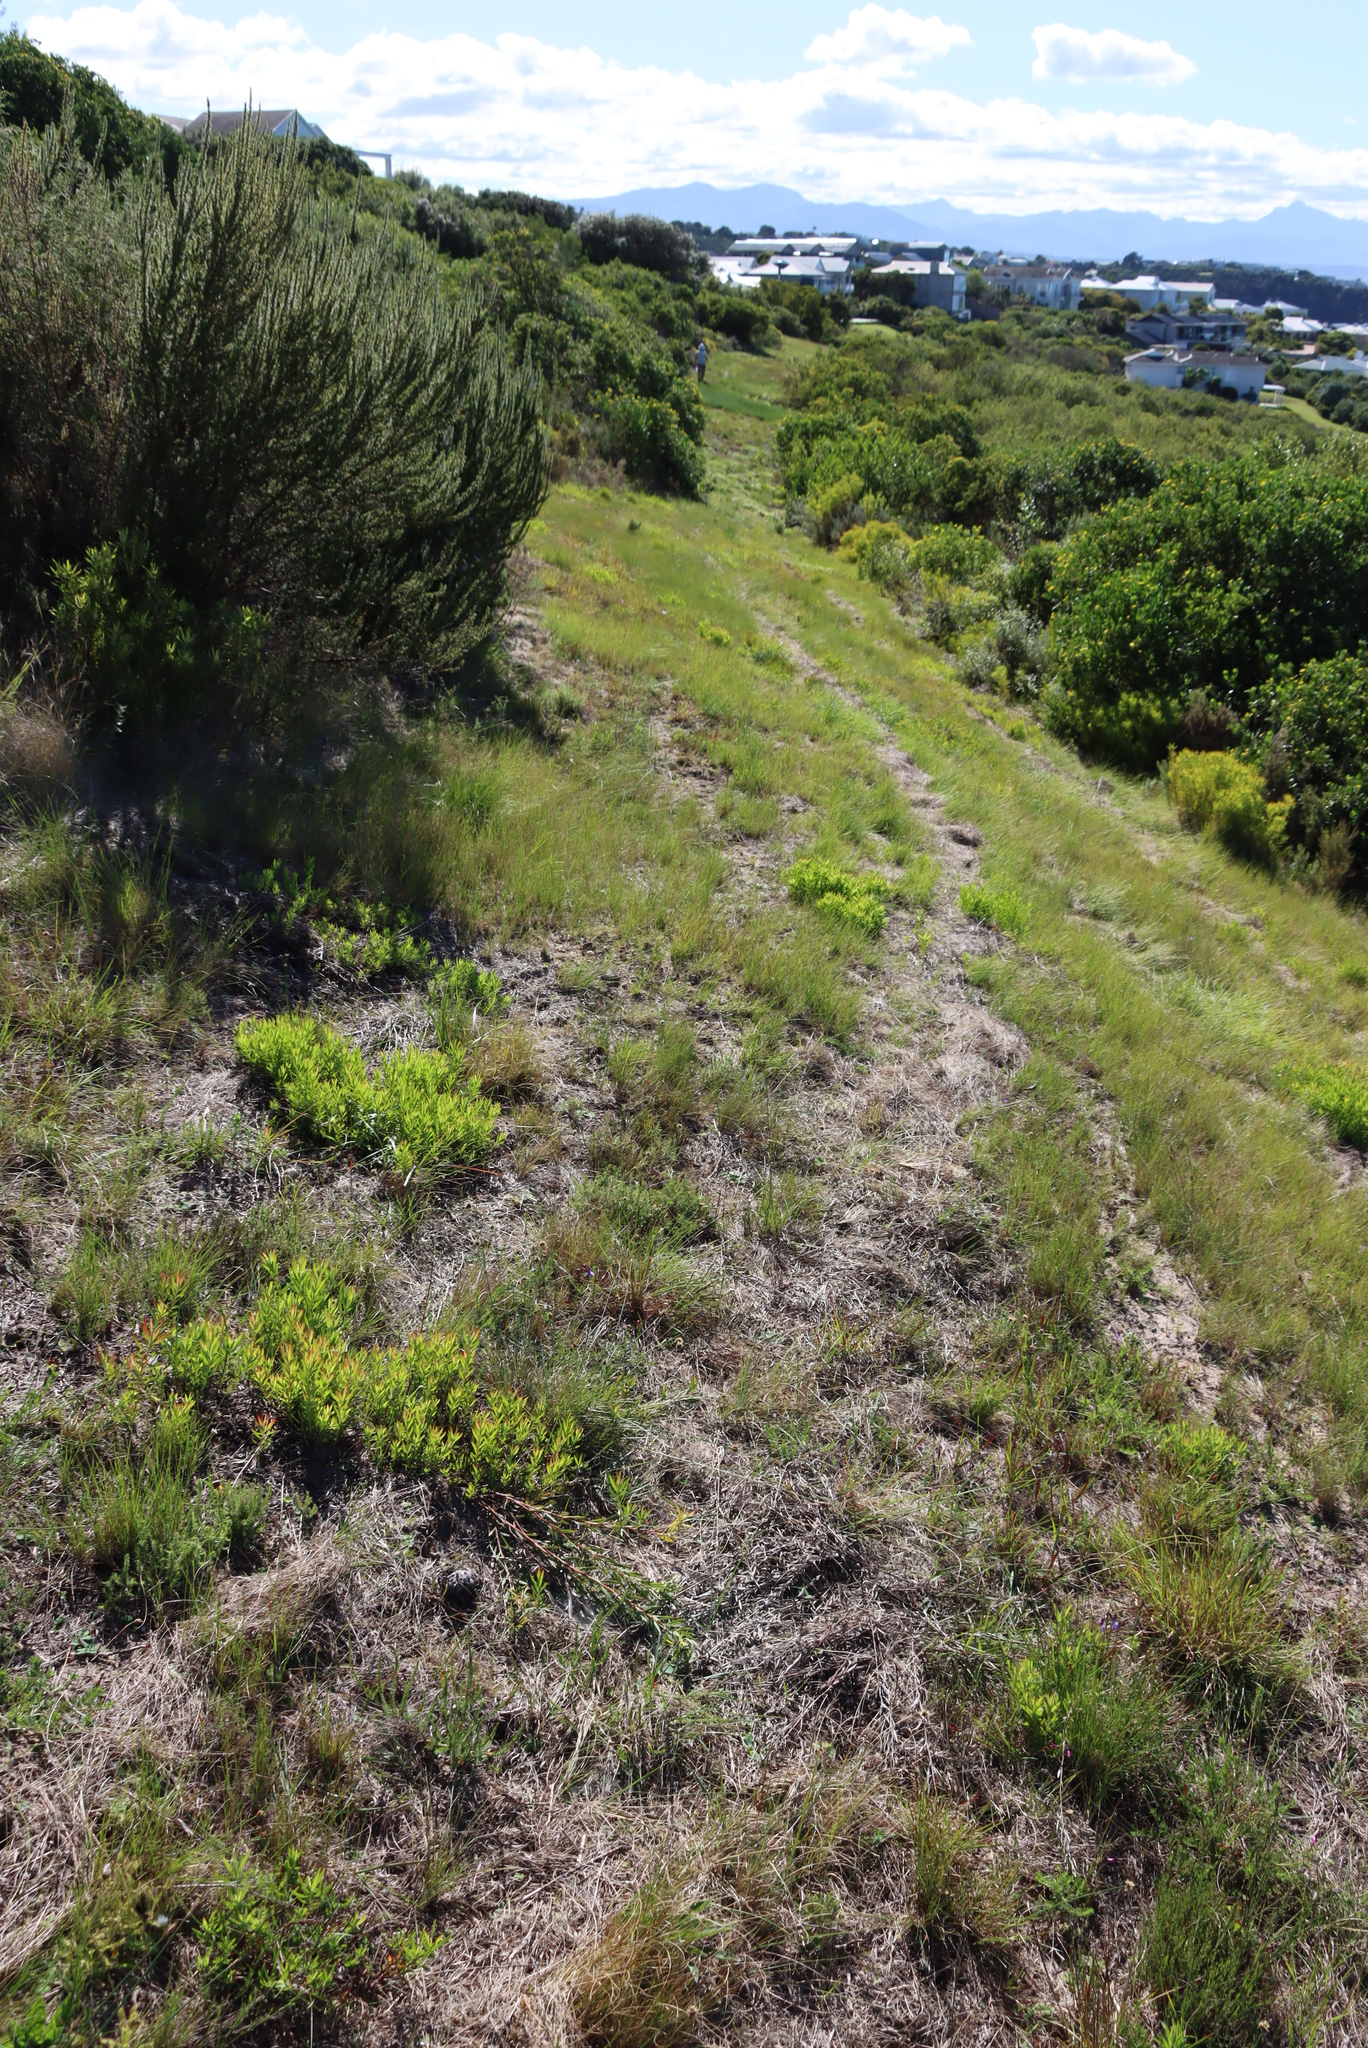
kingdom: Plantae
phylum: Tracheophyta
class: Magnoliopsida
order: Proteales
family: Proteaceae
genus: Leucadendron
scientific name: Leucadendron salignum
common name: Common sunshine conebush
